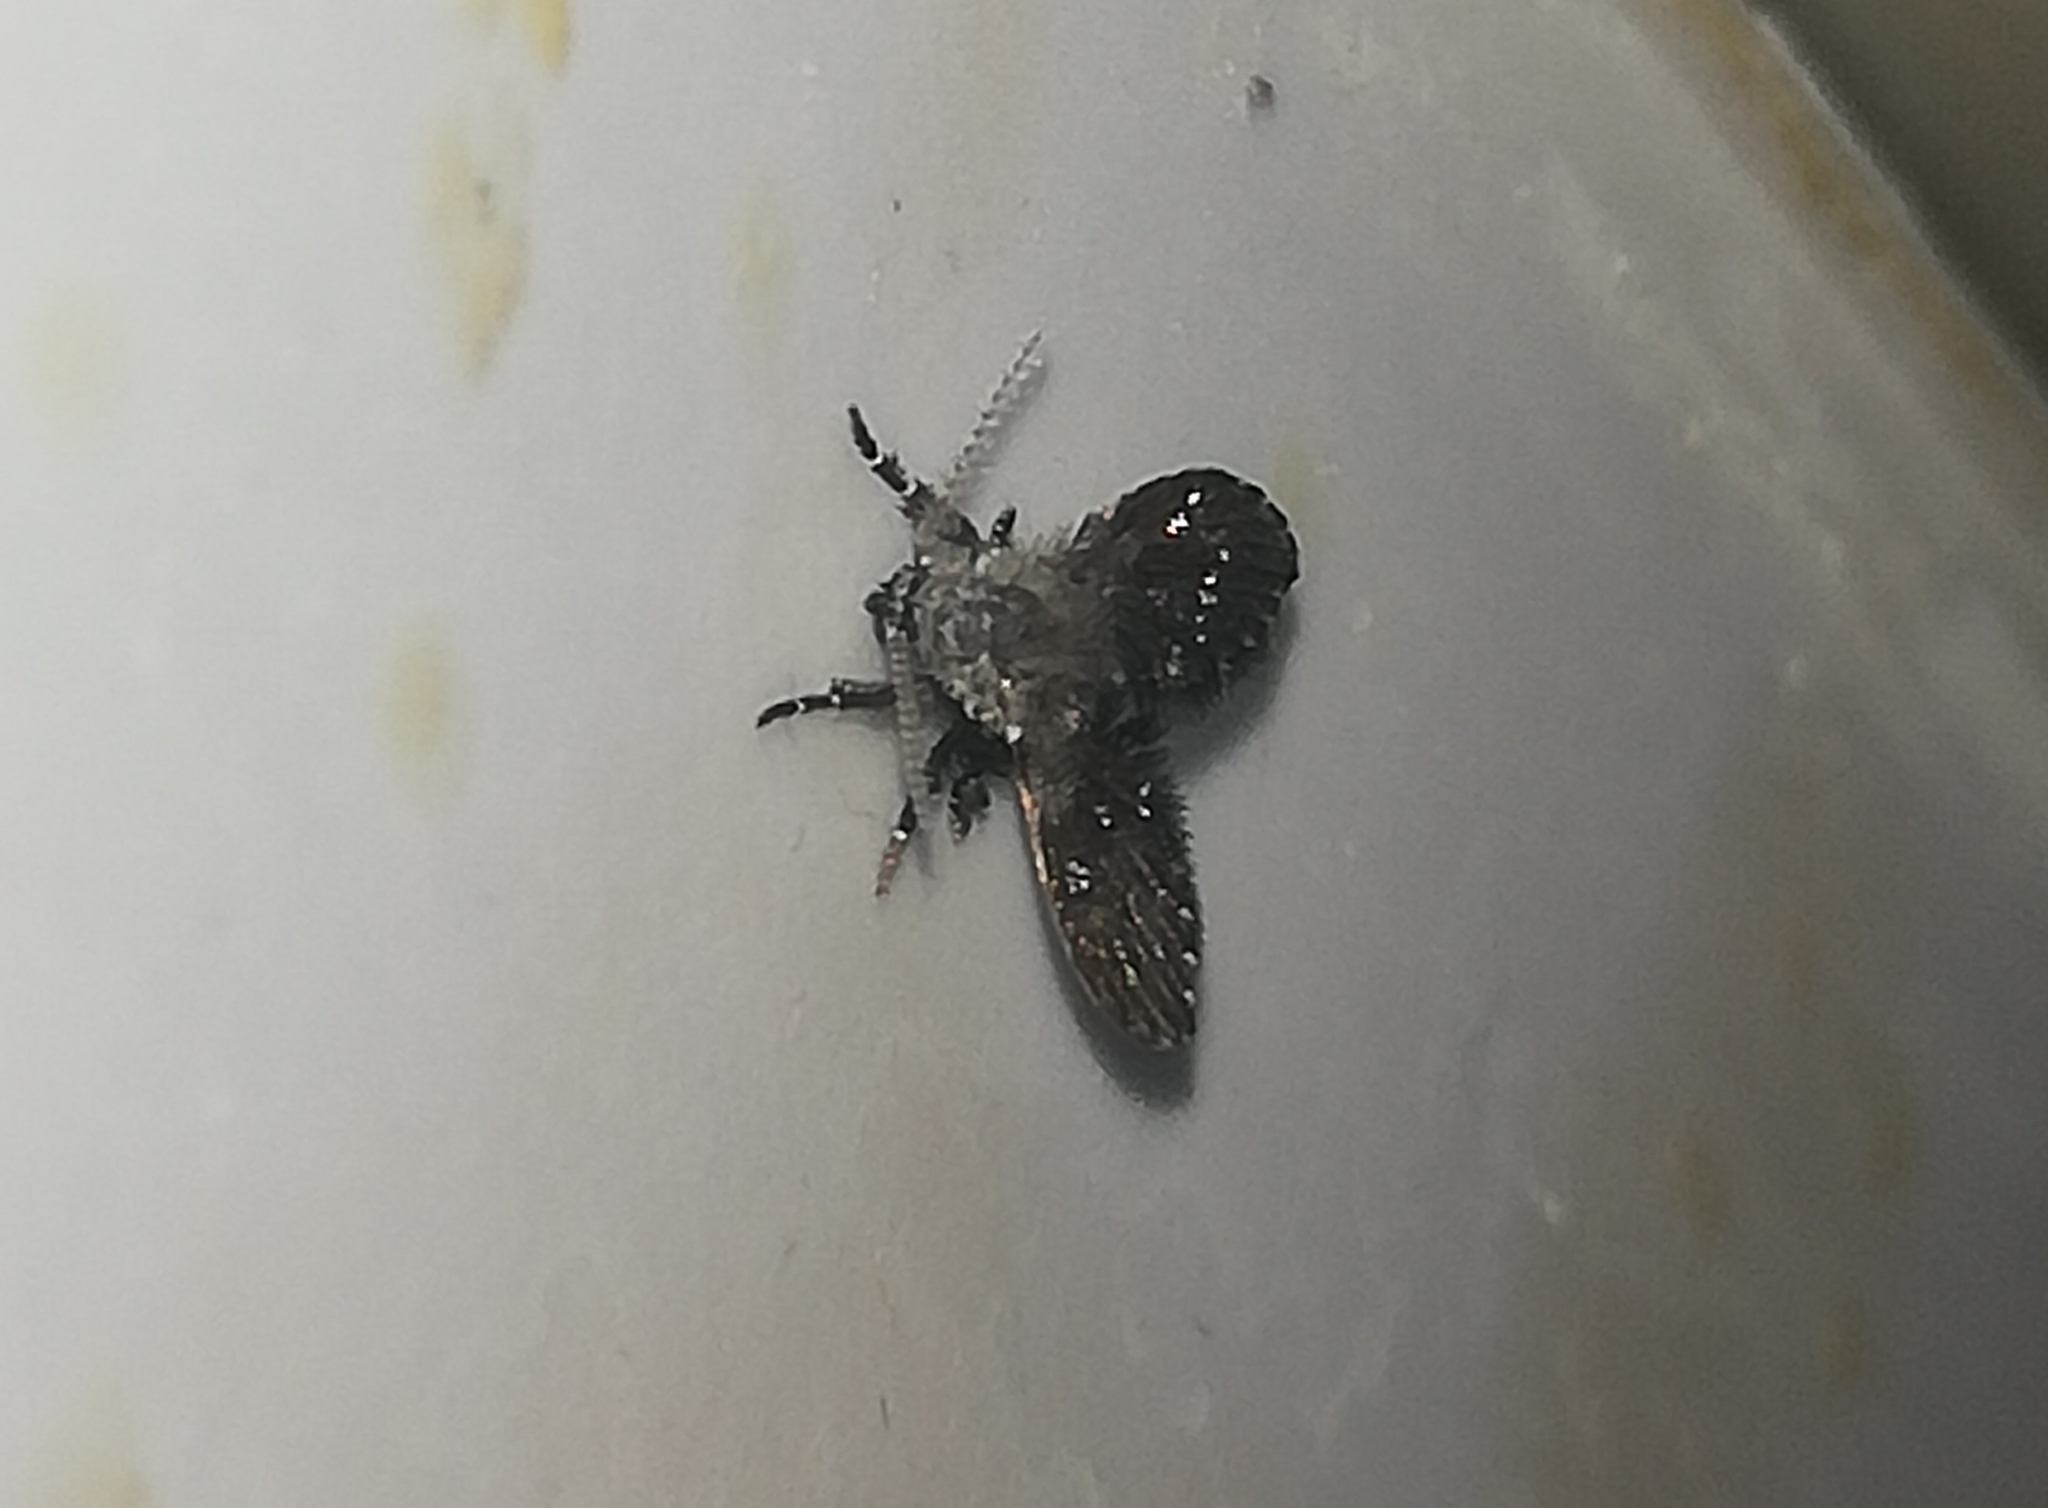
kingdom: Animalia
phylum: Arthropoda
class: Insecta
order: Diptera
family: Psychodidae
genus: Clogmia
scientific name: Clogmia albipunctatus
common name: White-spotted moth fly
